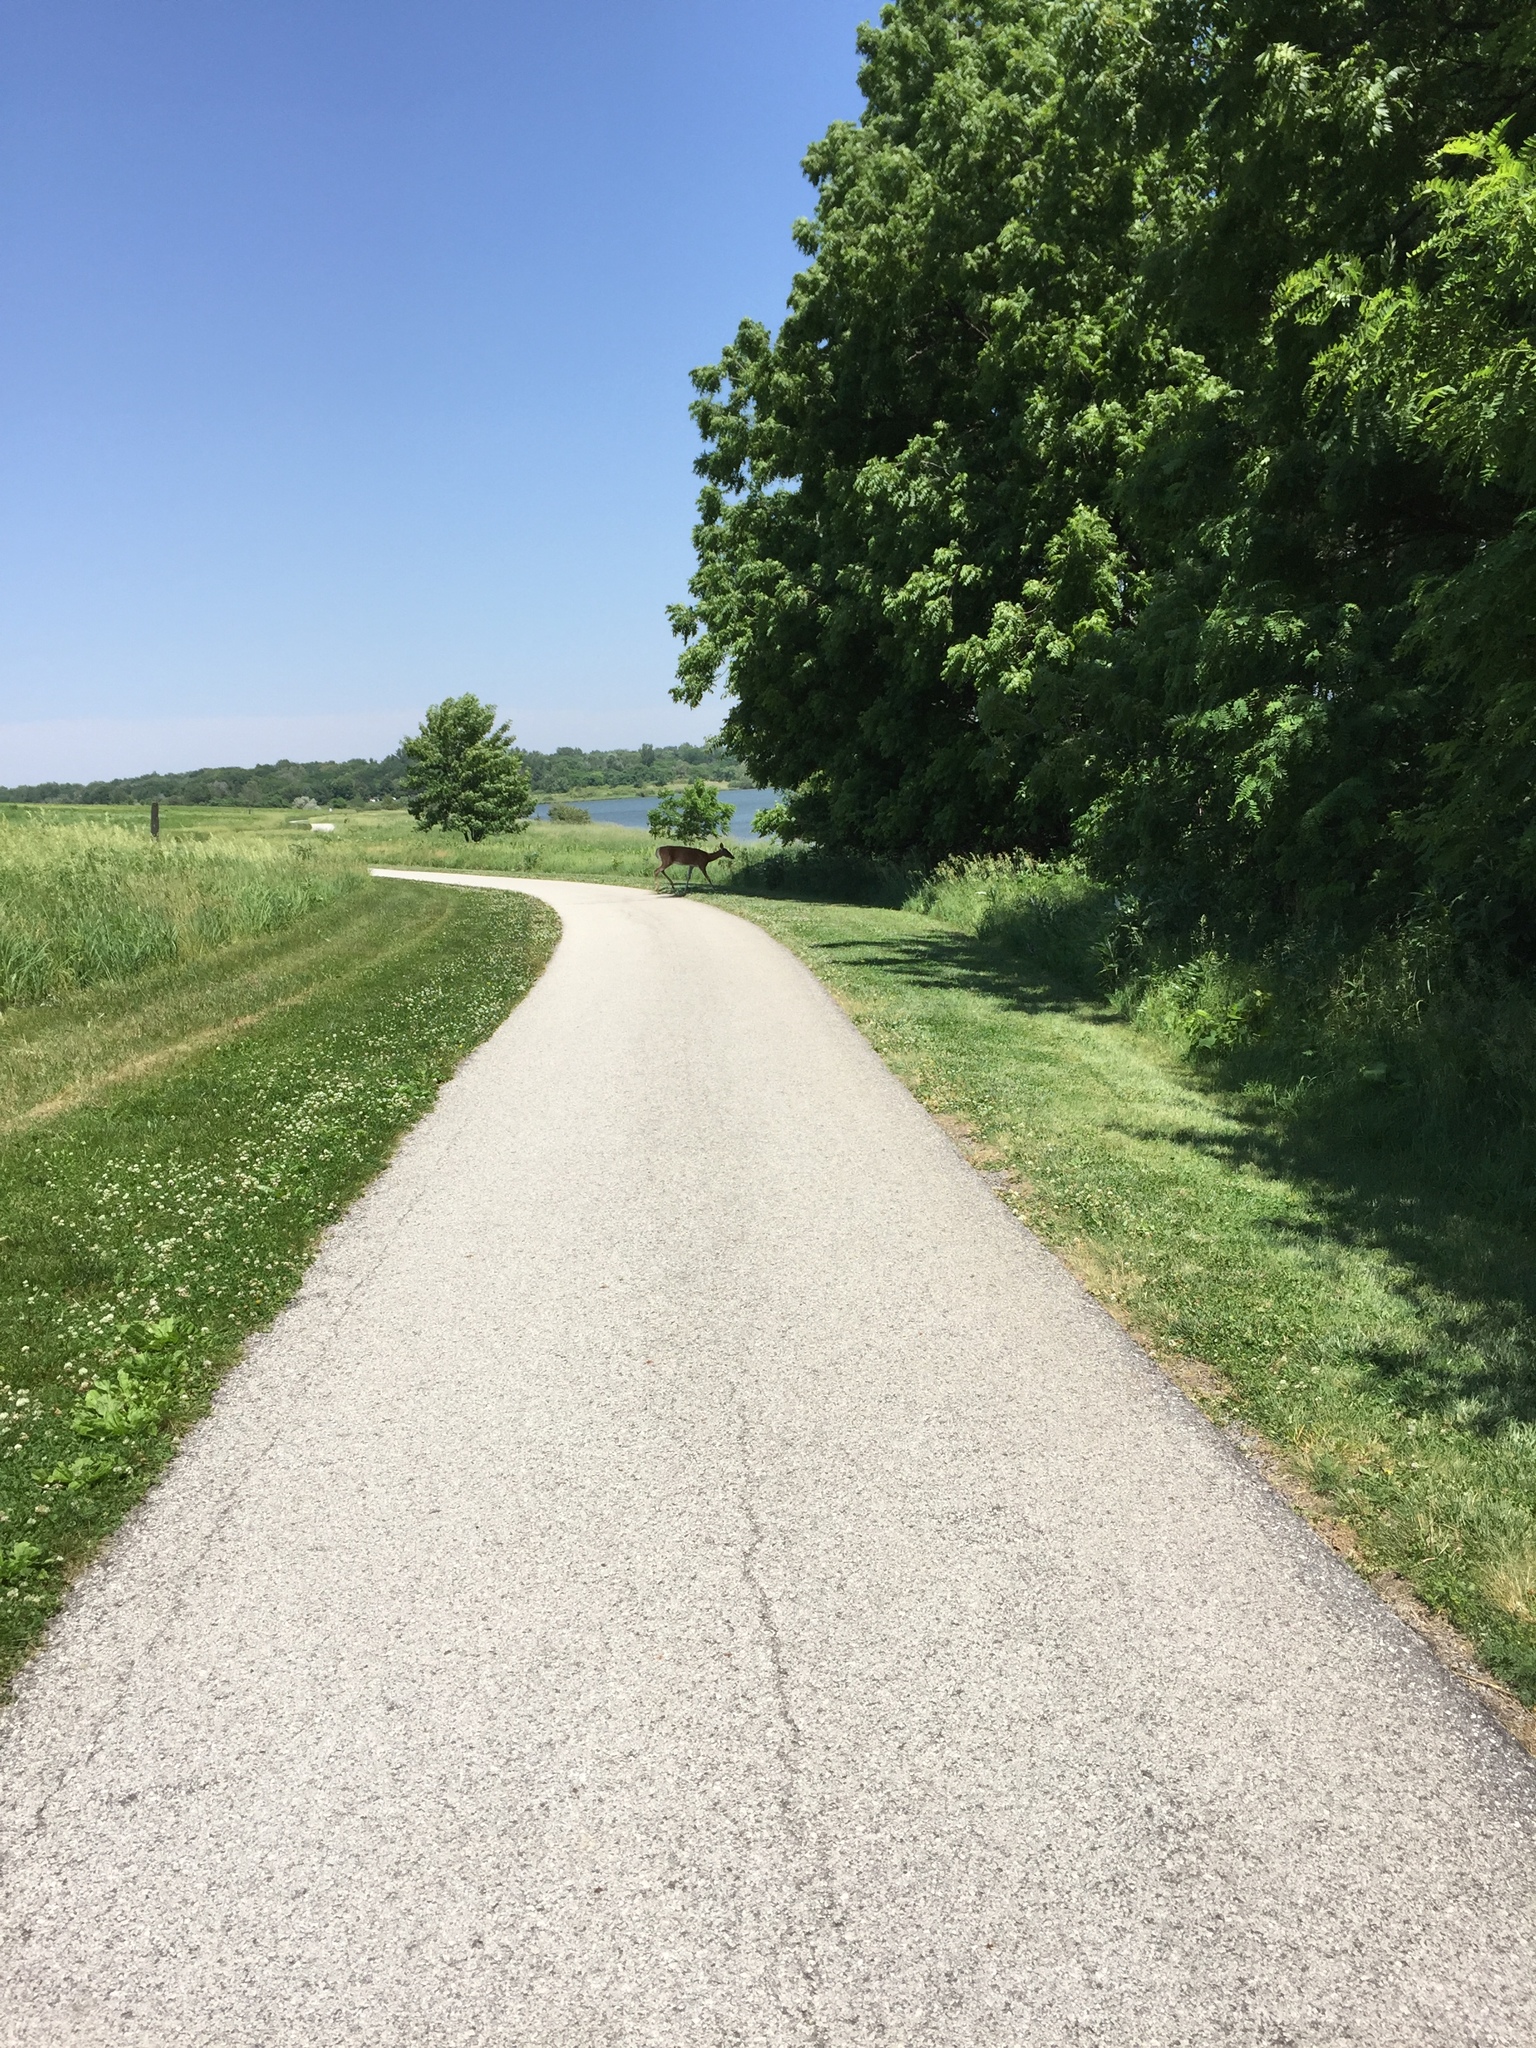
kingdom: Animalia
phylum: Chordata
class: Mammalia
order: Artiodactyla
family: Cervidae
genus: Odocoileus
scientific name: Odocoileus virginianus
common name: White-tailed deer
